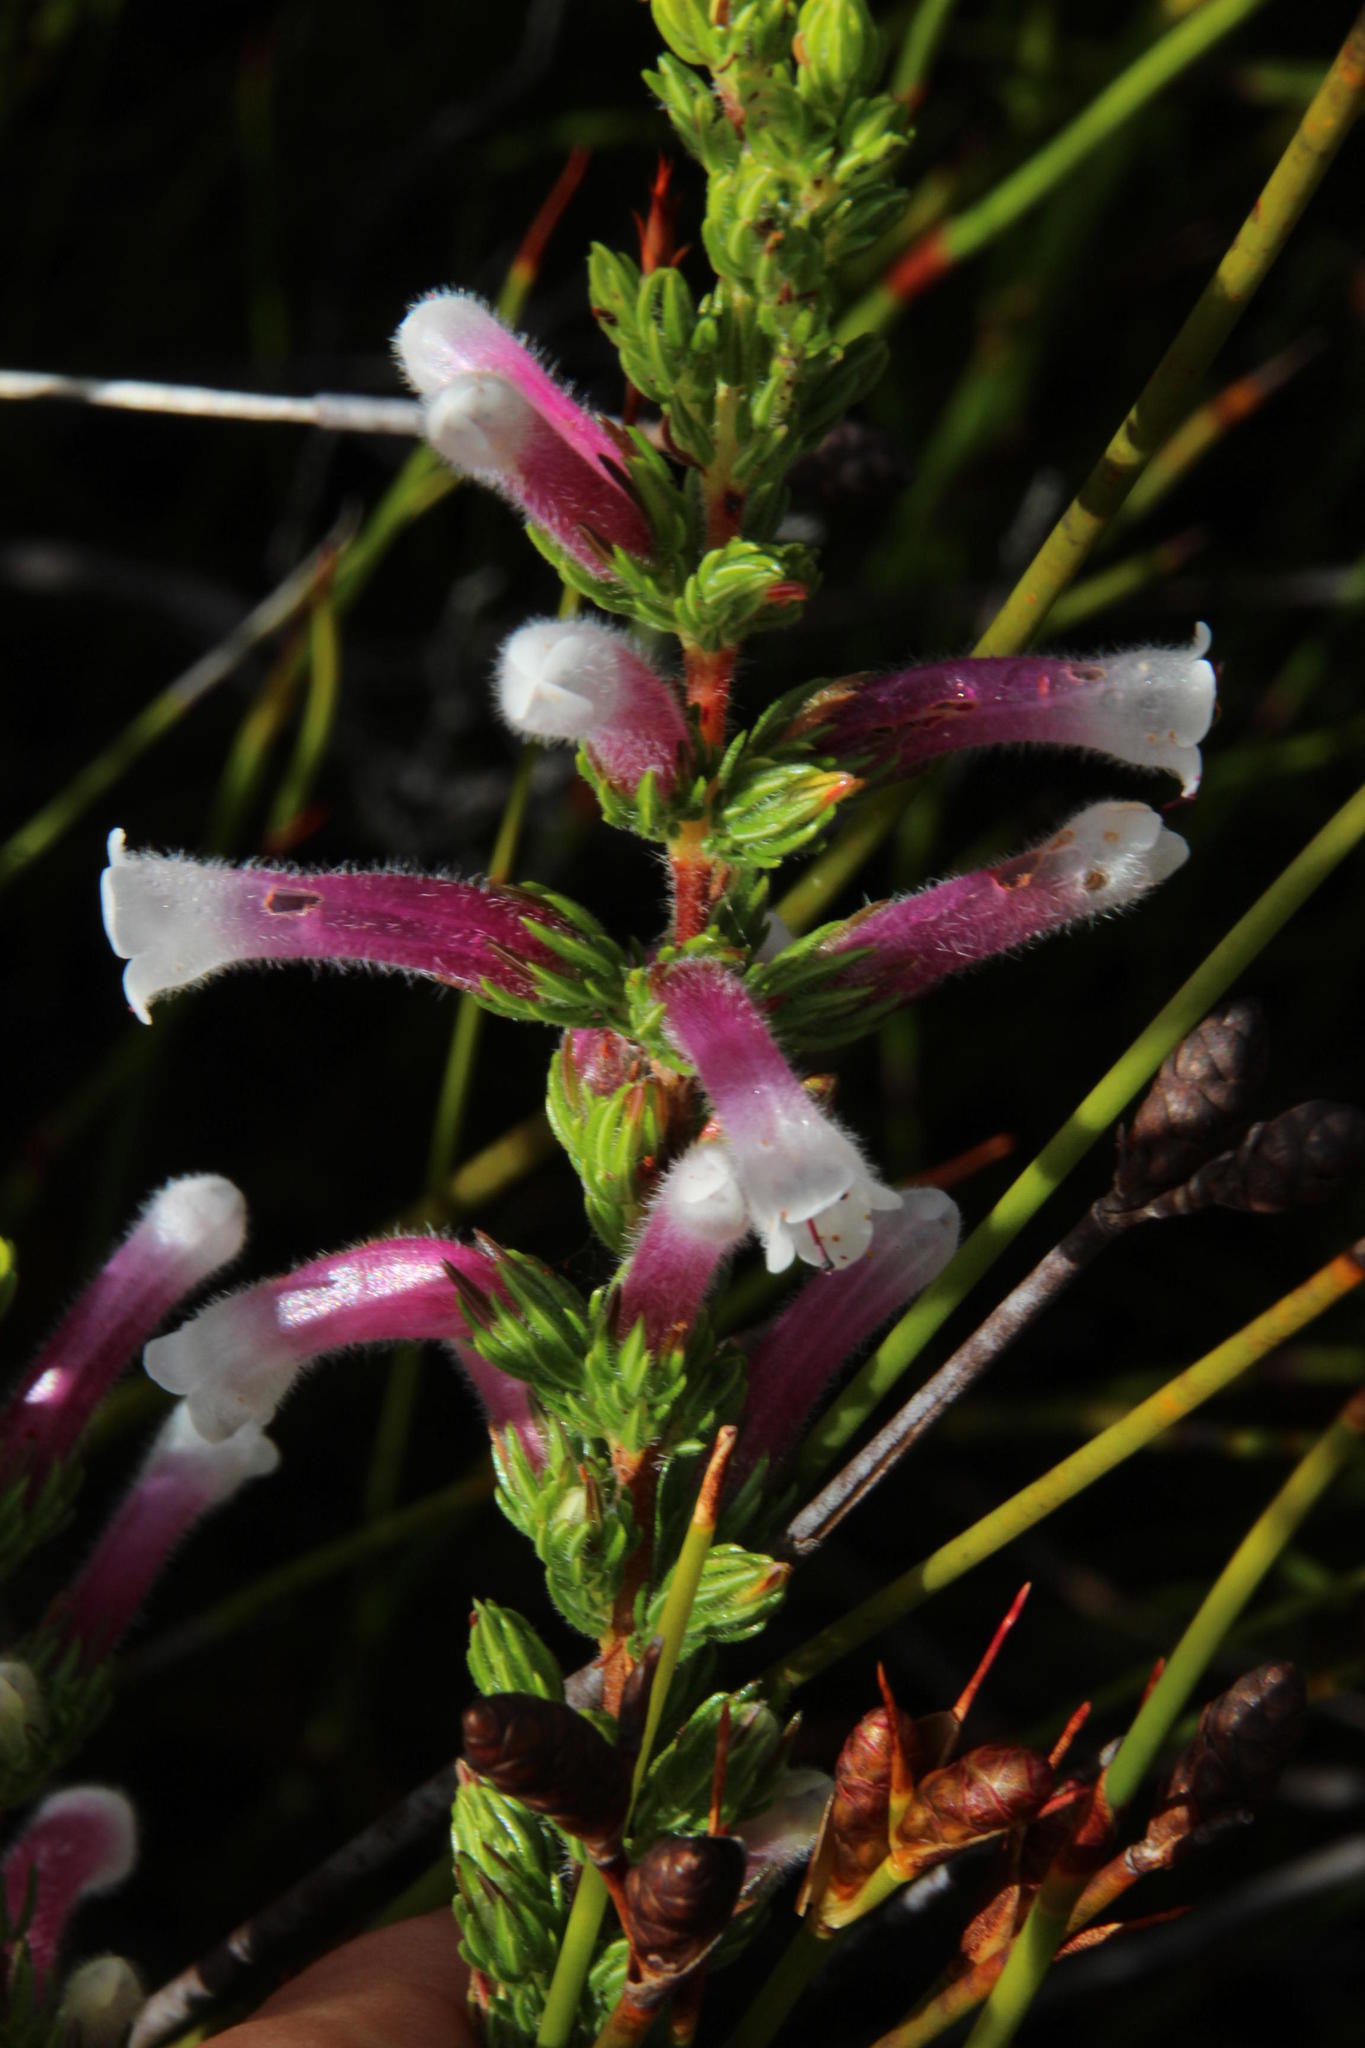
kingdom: Plantae
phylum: Tracheophyta
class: Magnoliopsida
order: Ericales
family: Ericaceae
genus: Erica
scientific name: Erica macowanii
